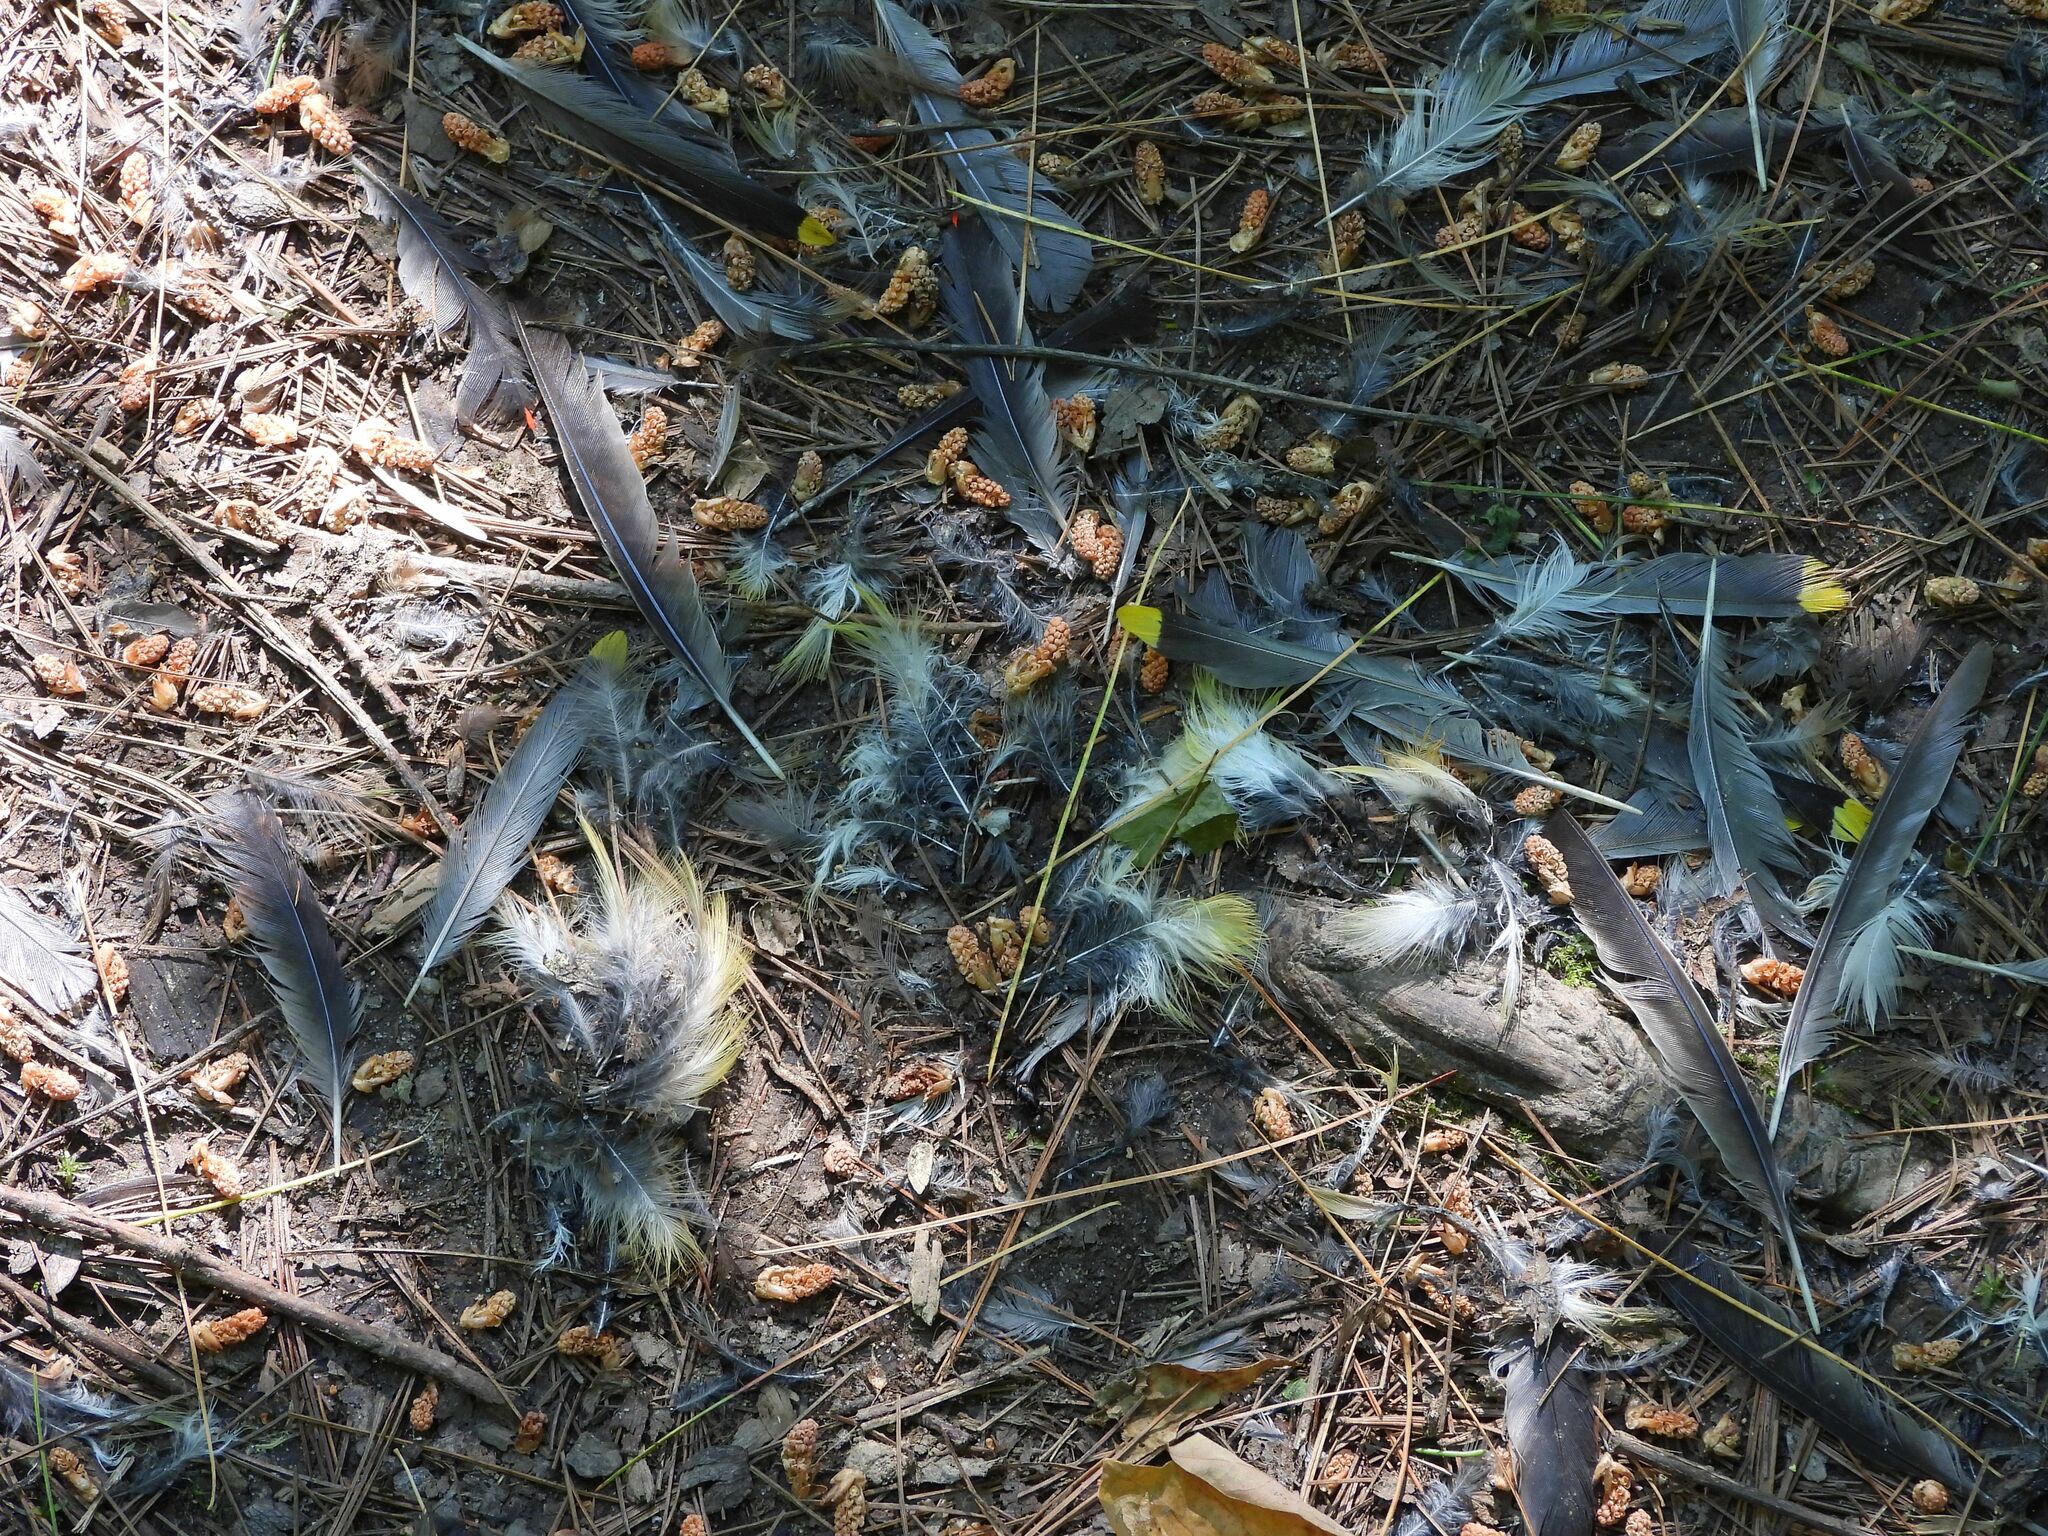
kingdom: Animalia
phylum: Chordata
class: Aves
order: Passeriformes
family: Bombycillidae
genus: Bombycilla
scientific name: Bombycilla cedrorum
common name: Cedar waxwing
